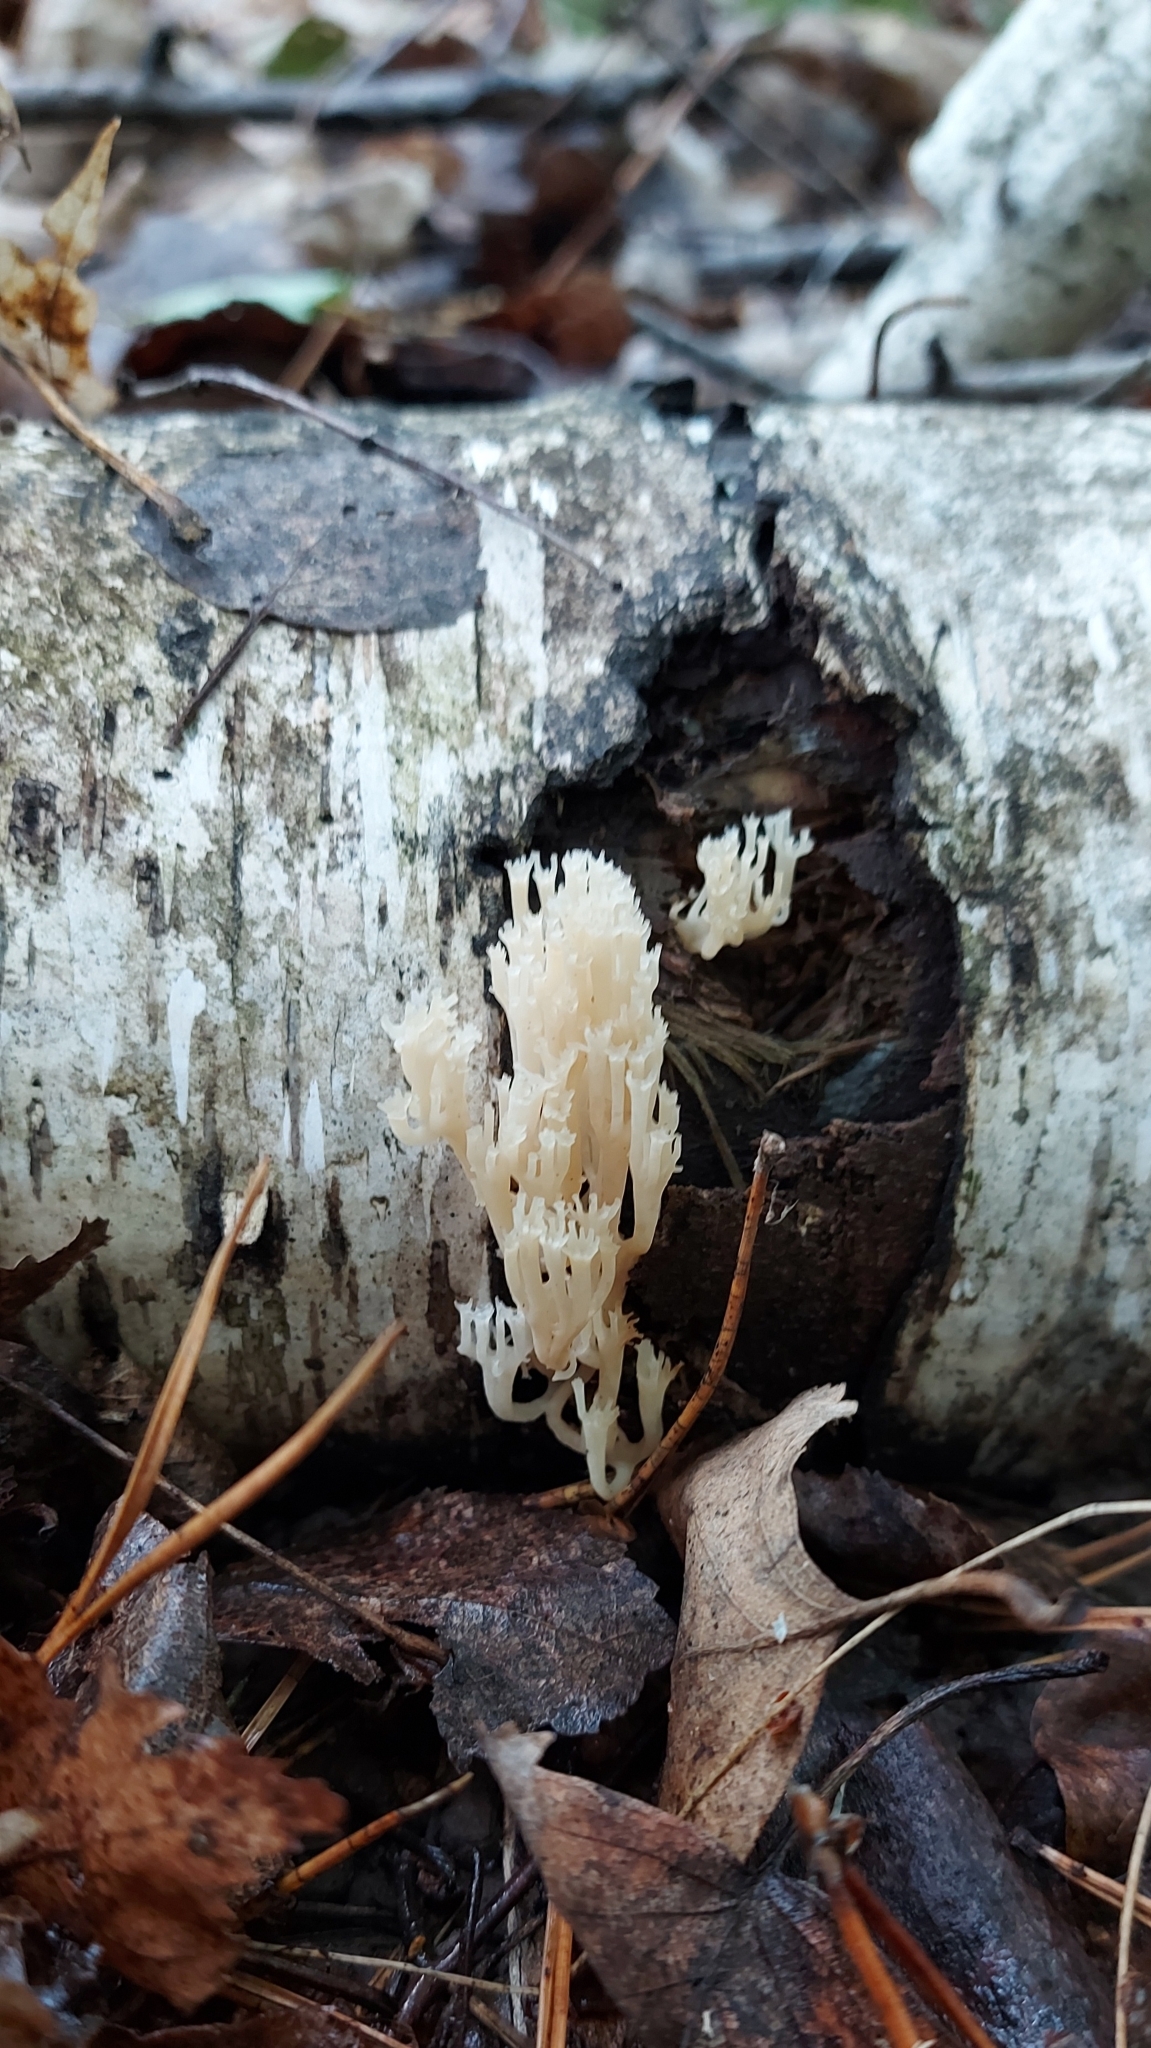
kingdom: Fungi
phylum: Basidiomycota
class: Agaricomycetes
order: Russulales
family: Auriscalpiaceae
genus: Artomyces
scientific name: Artomyces pyxidatus
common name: Crown-tipped coral fungus
